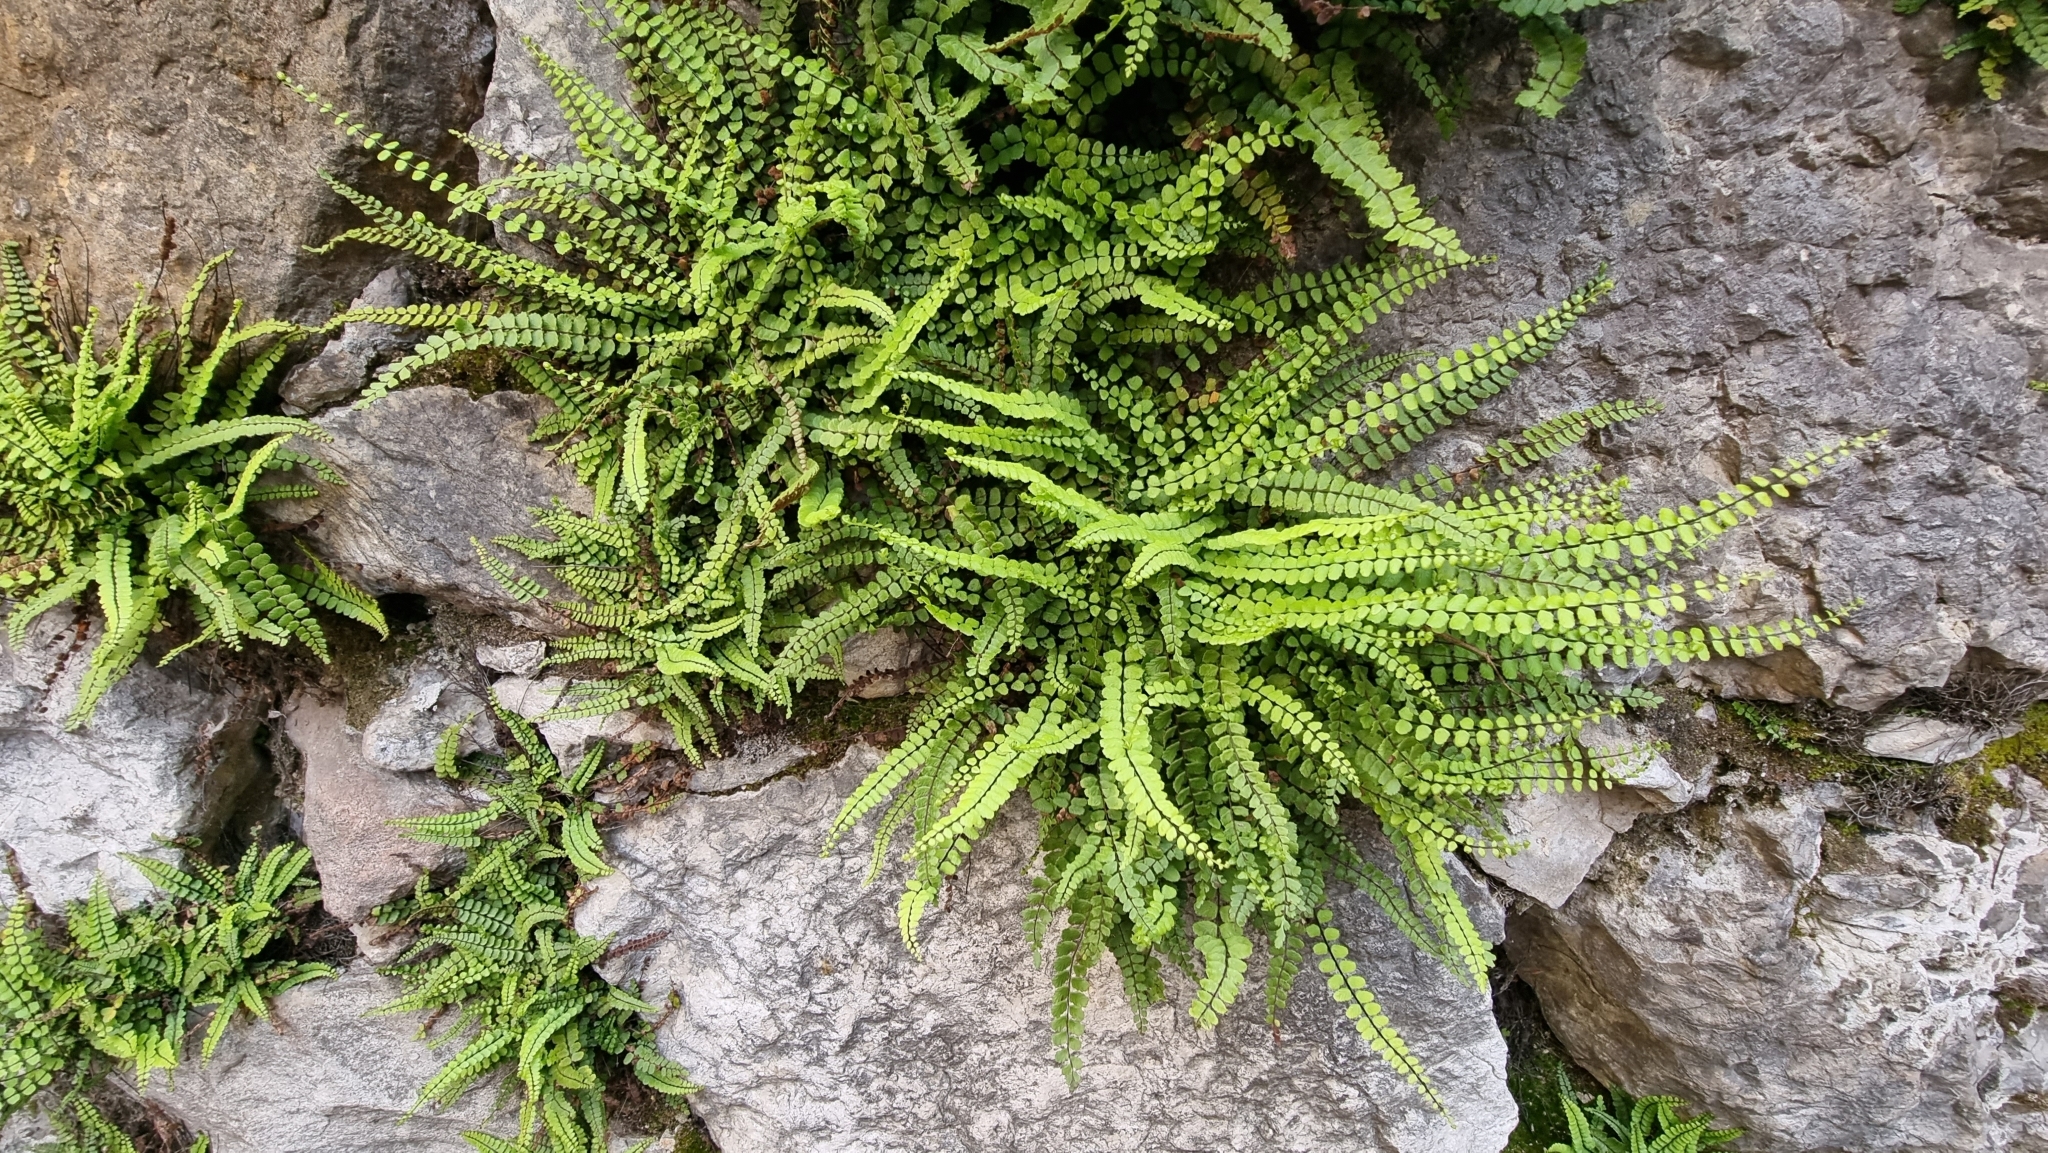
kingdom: Plantae
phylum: Tracheophyta
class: Polypodiopsida
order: Polypodiales
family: Aspleniaceae
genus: Asplenium
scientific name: Asplenium quadrivalens
